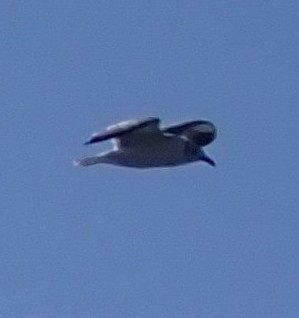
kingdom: Animalia
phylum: Chordata
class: Aves
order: Charadriiformes
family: Laridae
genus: Leucophaeus
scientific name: Leucophaeus atricilla
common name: Laughing gull
